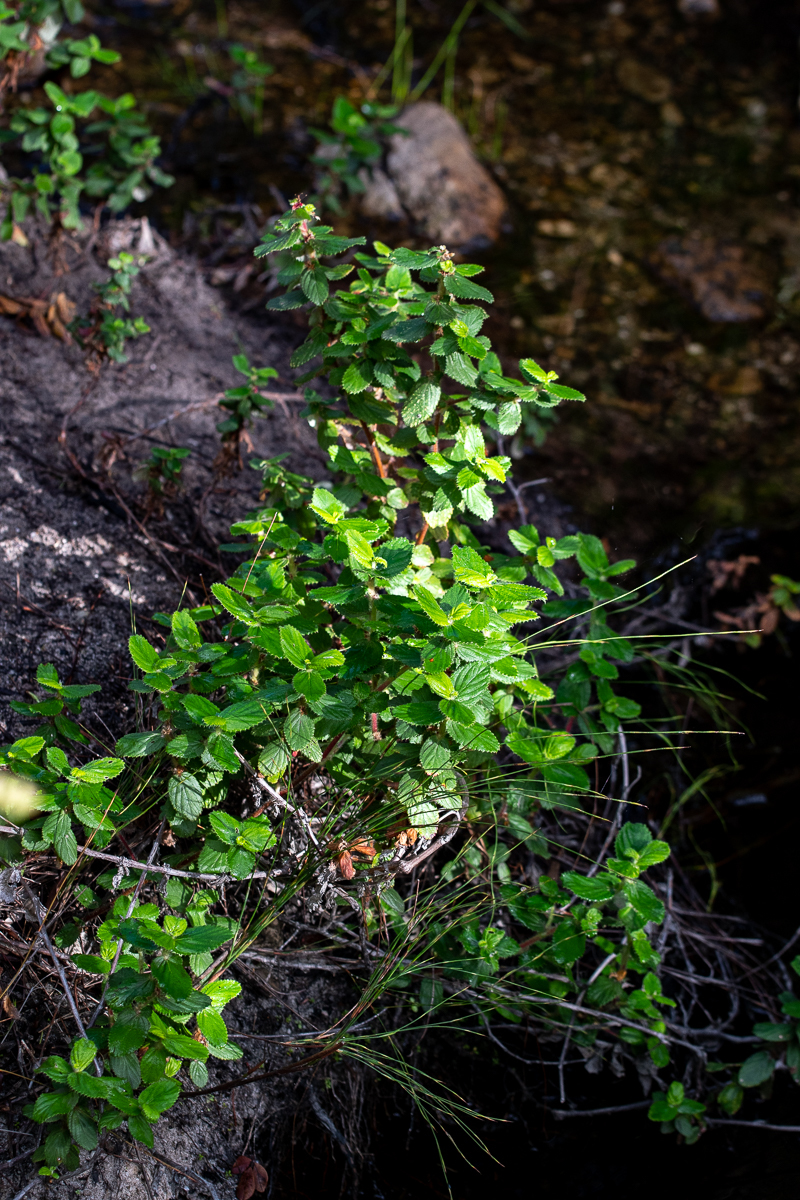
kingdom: Plantae
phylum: Tracheophyta
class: Magnoliopsida
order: Rosales
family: Rosaceae
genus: Cliffortia
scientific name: Cliffortia hirsuta
